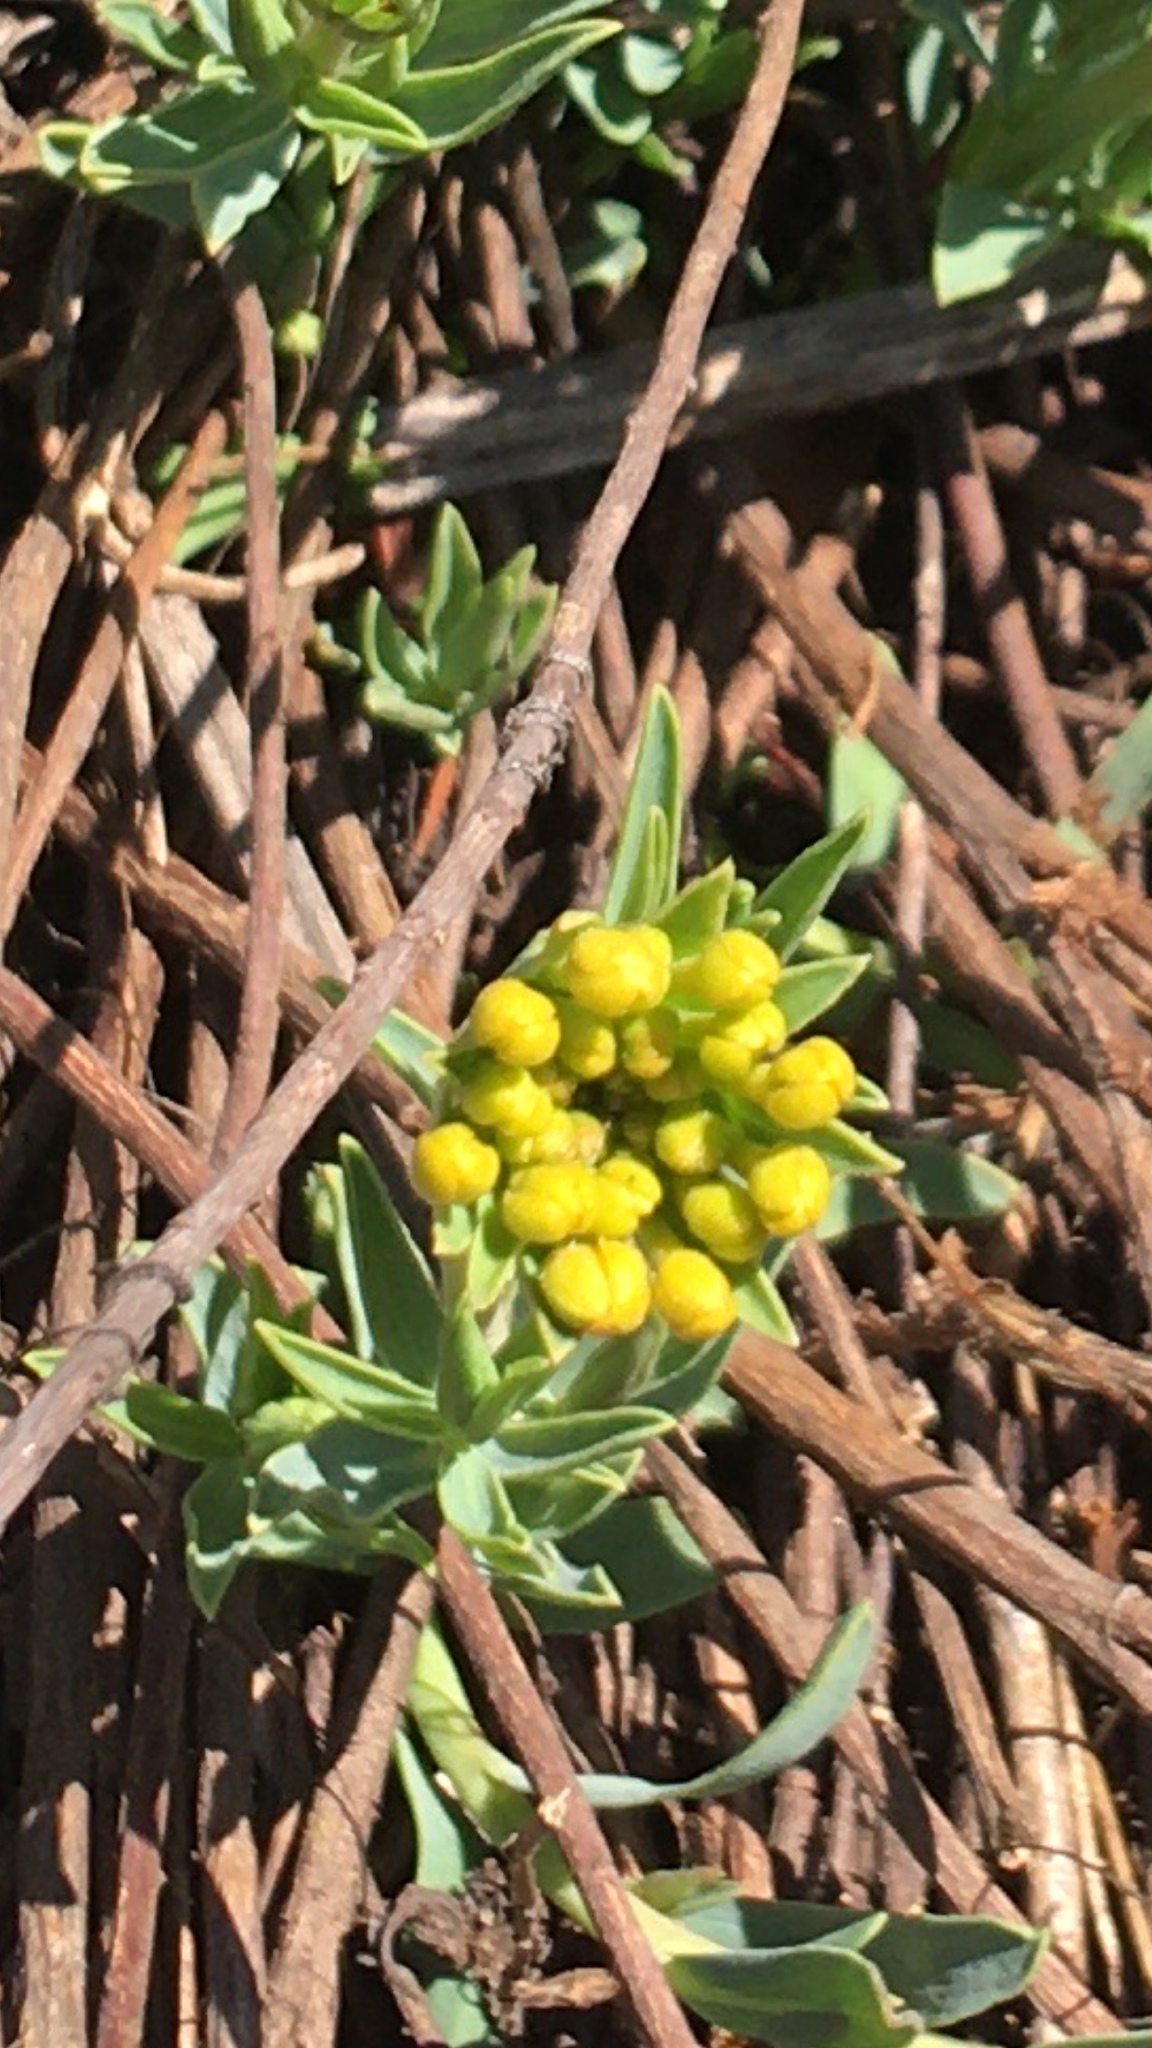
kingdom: Plantae
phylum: Tracheophyta
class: Magnoliopsida
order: Malvales
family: Thymelaeaceae
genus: Gnidia
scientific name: Gnidia capitata
